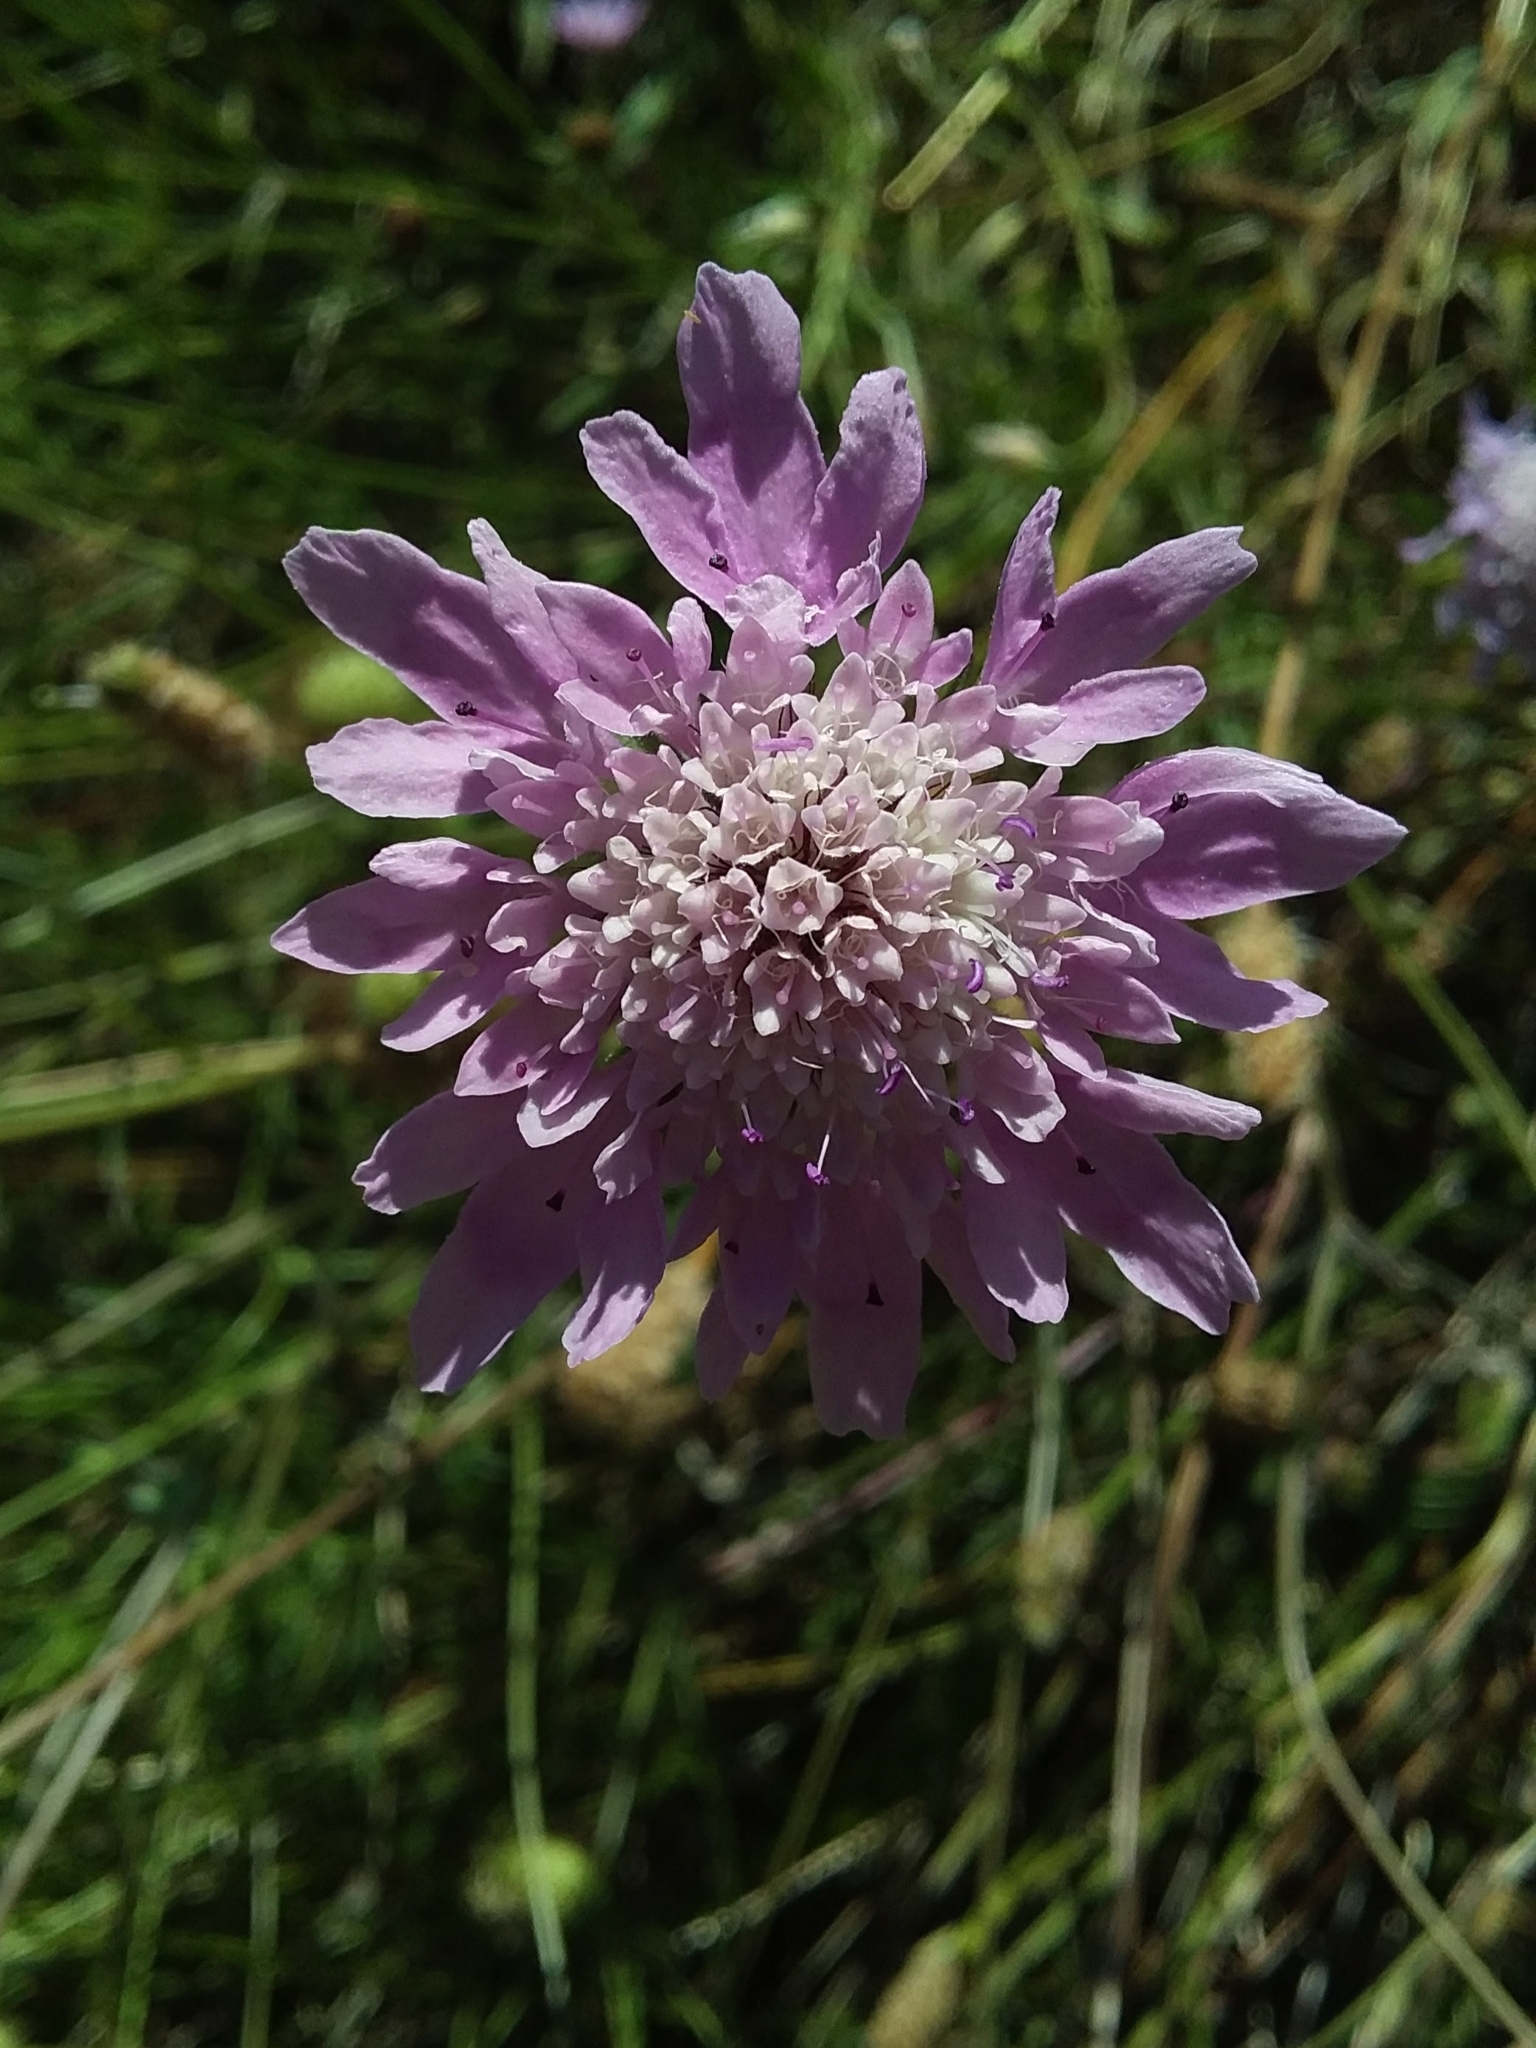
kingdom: Plantae
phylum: Tracheophyta
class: Magnoliopsida
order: Dipsacales
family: Caprifoliaceae
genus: Sixalix
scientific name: Sixalix atropurpurea
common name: Sweet scabious
